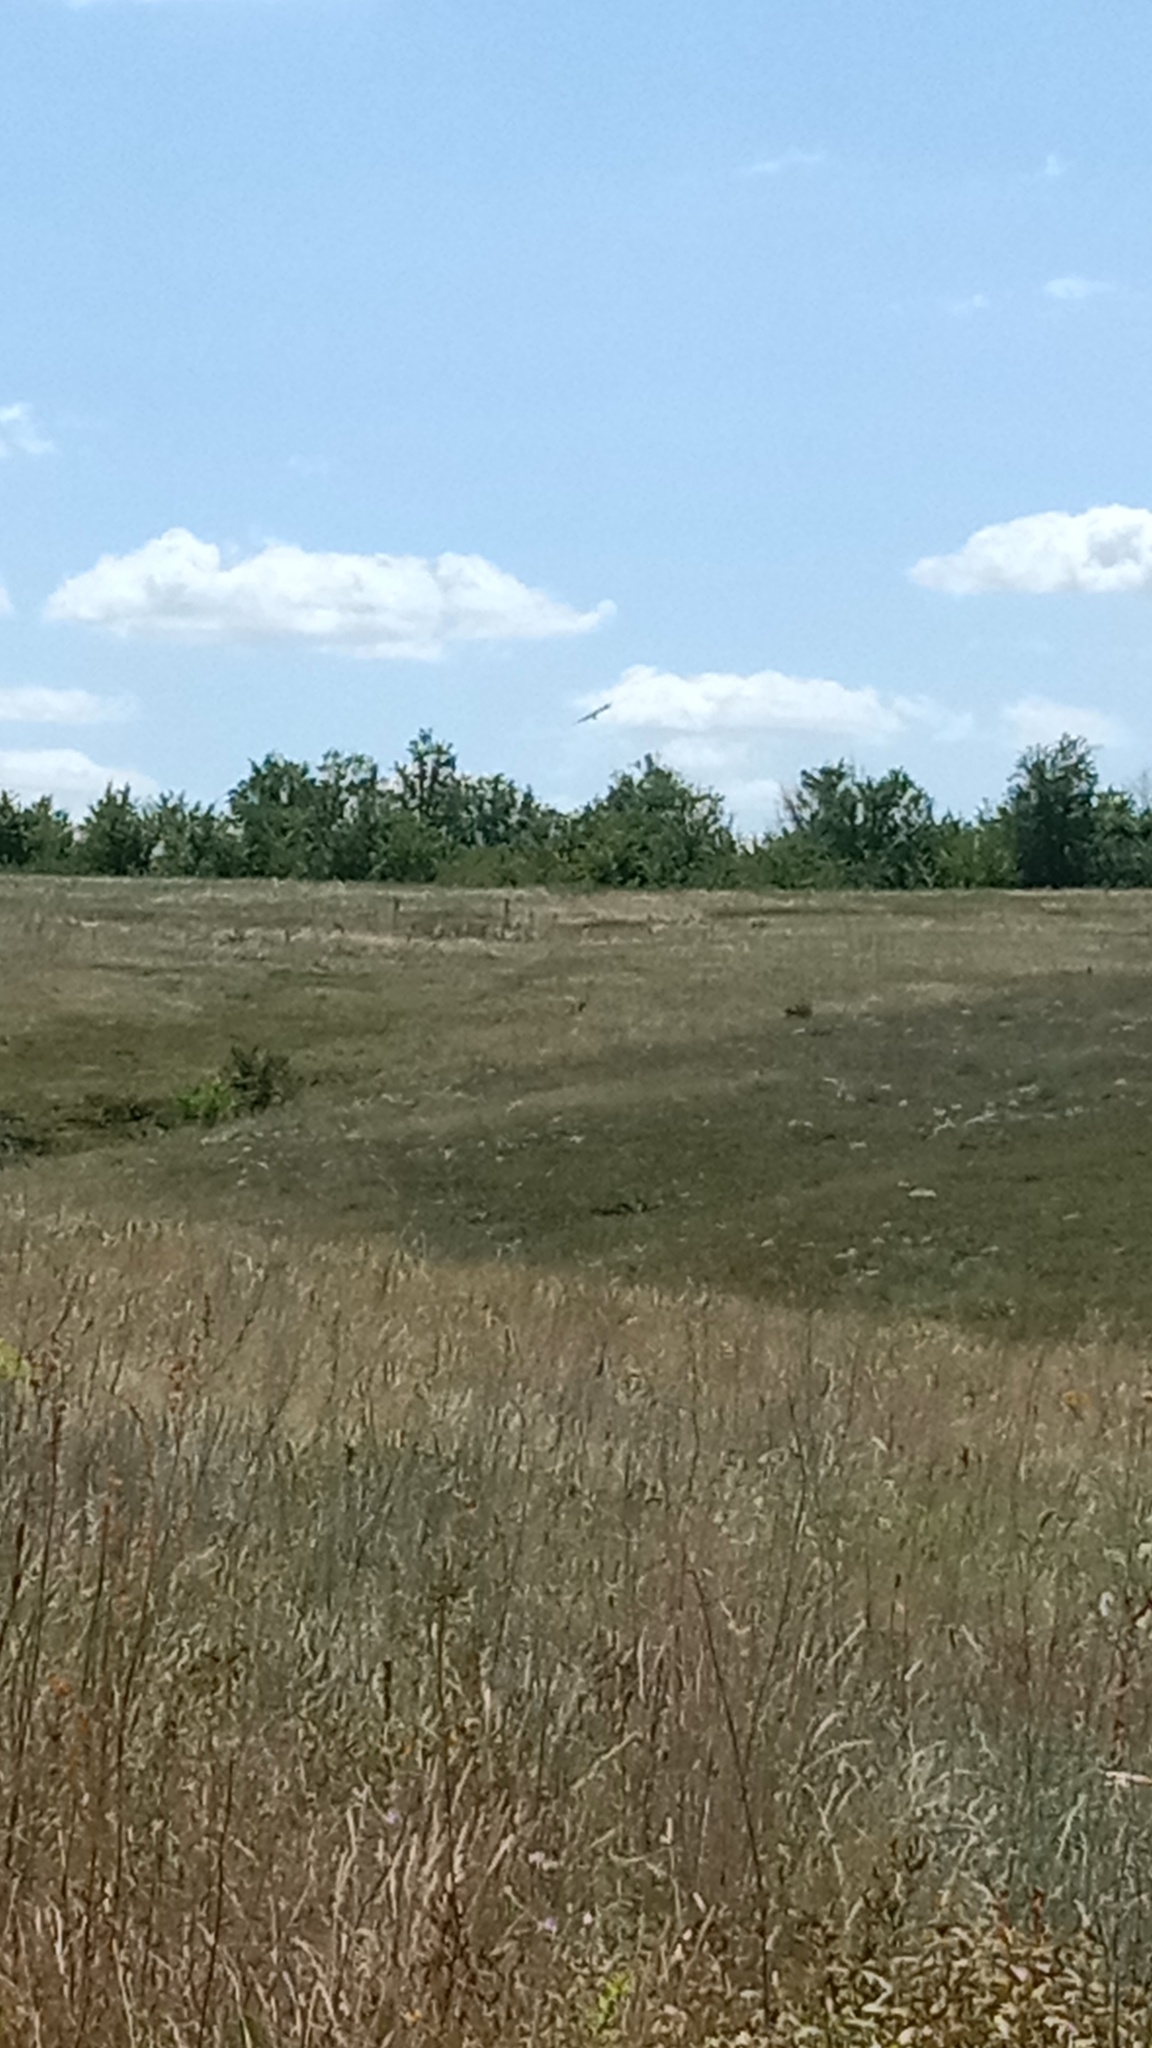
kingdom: Animalia
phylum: Chordata
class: Aves
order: Accipitriformes
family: Accipitridae
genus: Circus
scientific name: Circus aeruginosus
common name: Western marsh harrier
